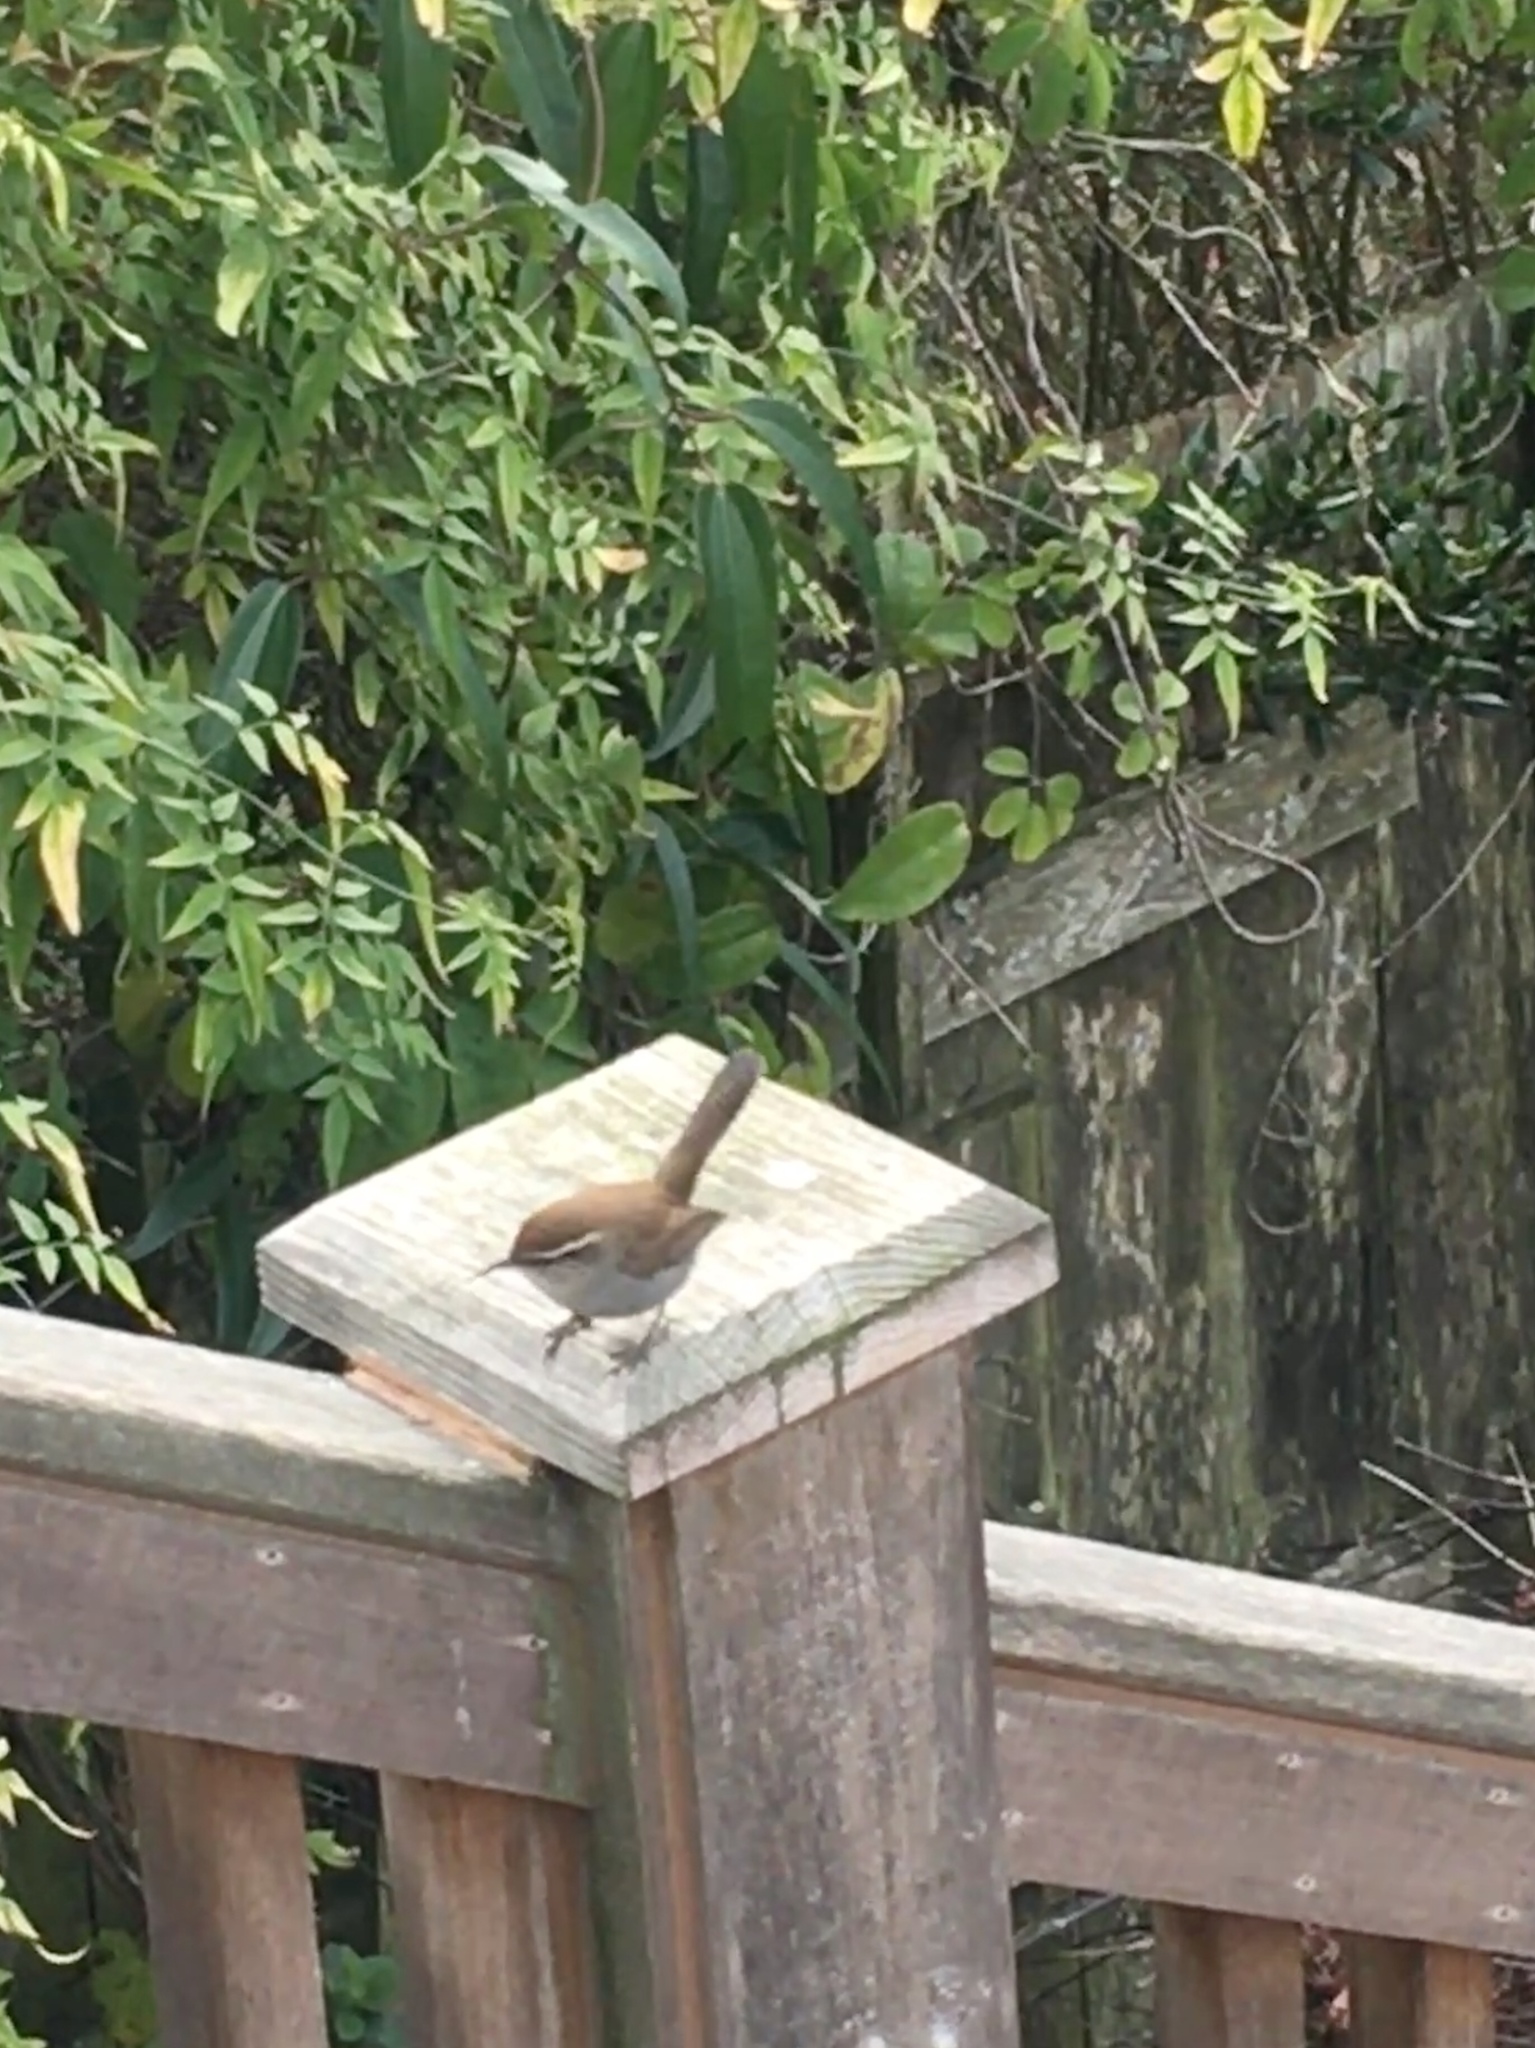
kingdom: Animalia
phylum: Chordata
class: Aves
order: Passeriformes
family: Troglodytidae
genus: Thryomanes
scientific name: Thryomanes bewickii
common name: Bewick's wren
